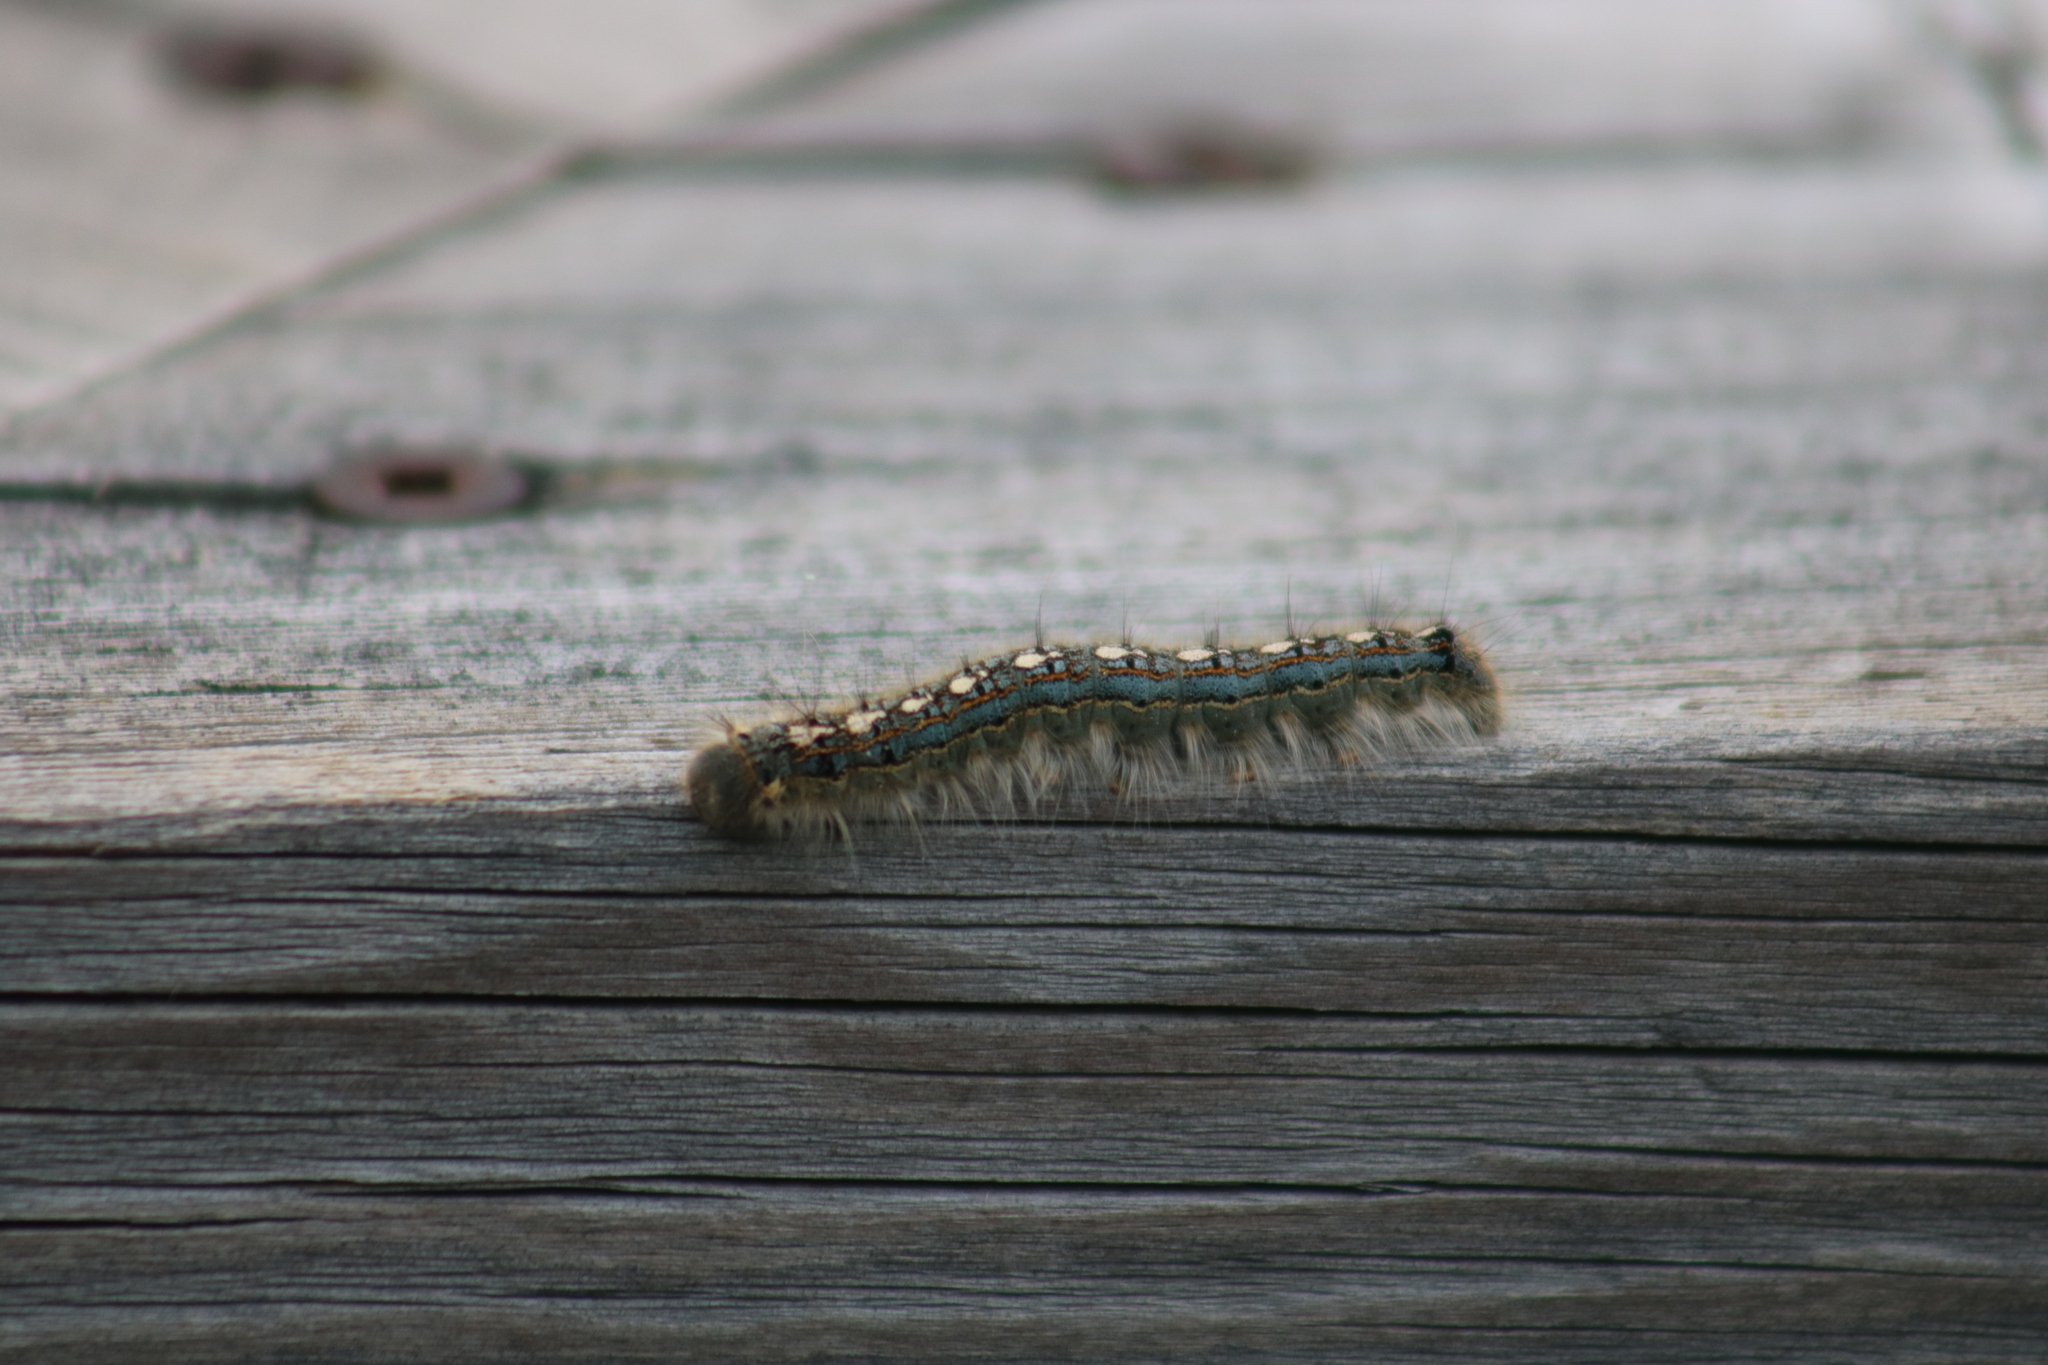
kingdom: Animalia
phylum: Arthropoda
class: Insecta
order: Lepidoptera
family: Lasiocampidae
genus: Malacosoma
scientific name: Malacosoma disstria
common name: Forest tent caterpillar
